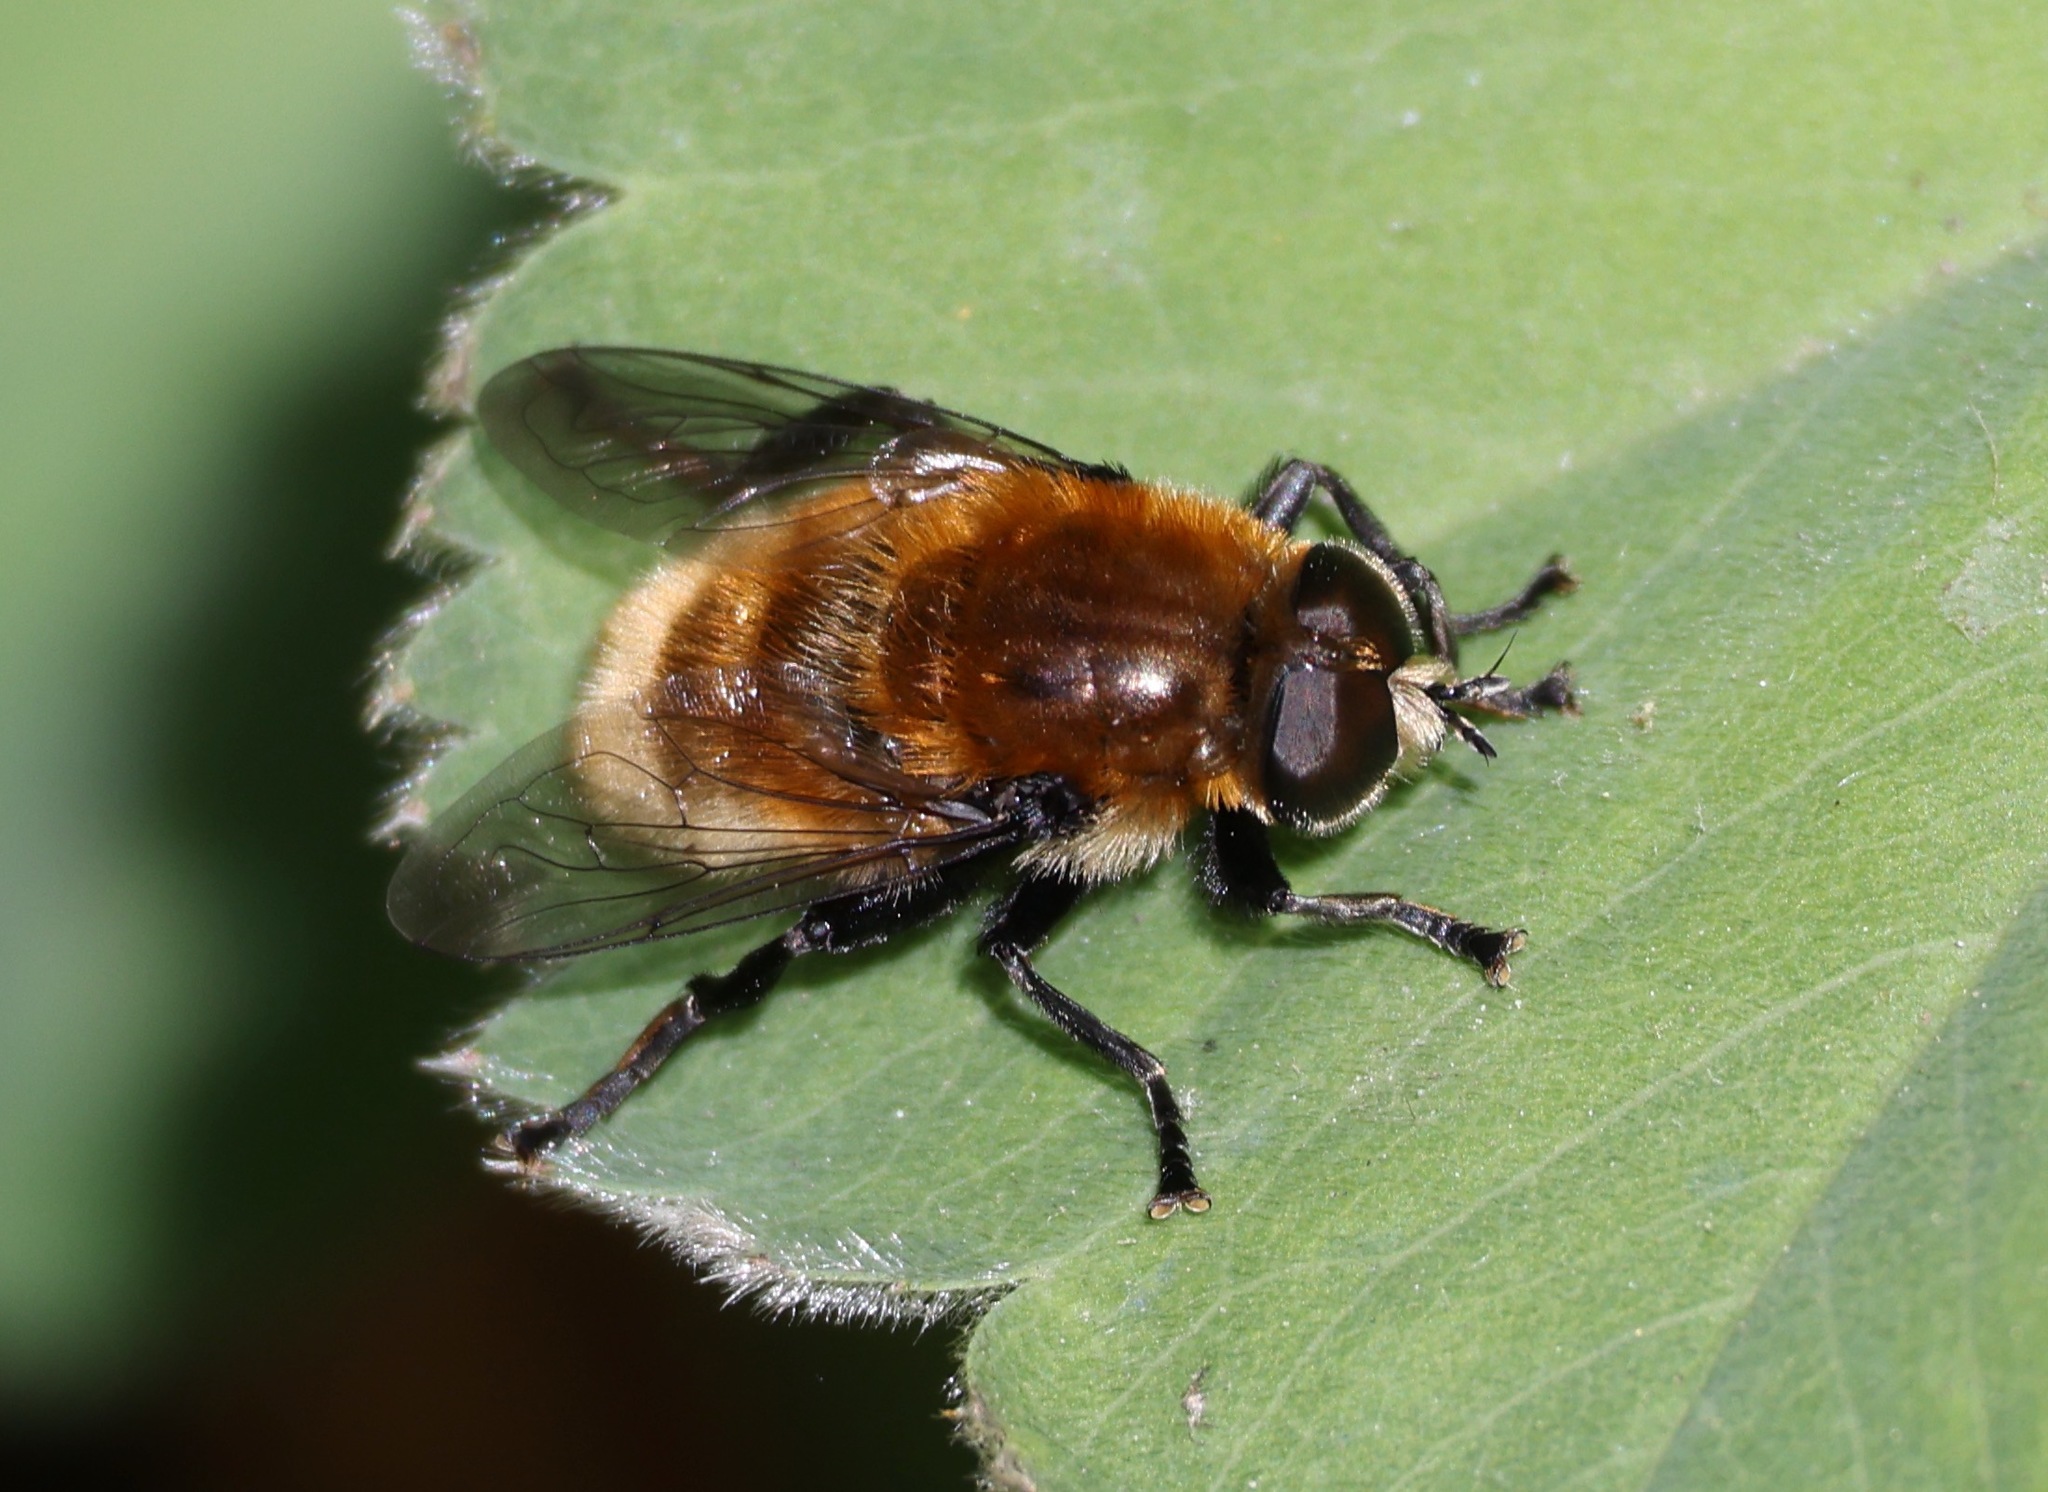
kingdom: Animalia
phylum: Arthropoda
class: Insecta
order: Diptera
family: Syrphidae
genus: Merodon
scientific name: Merodon equestris
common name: Greater bulb-fly
